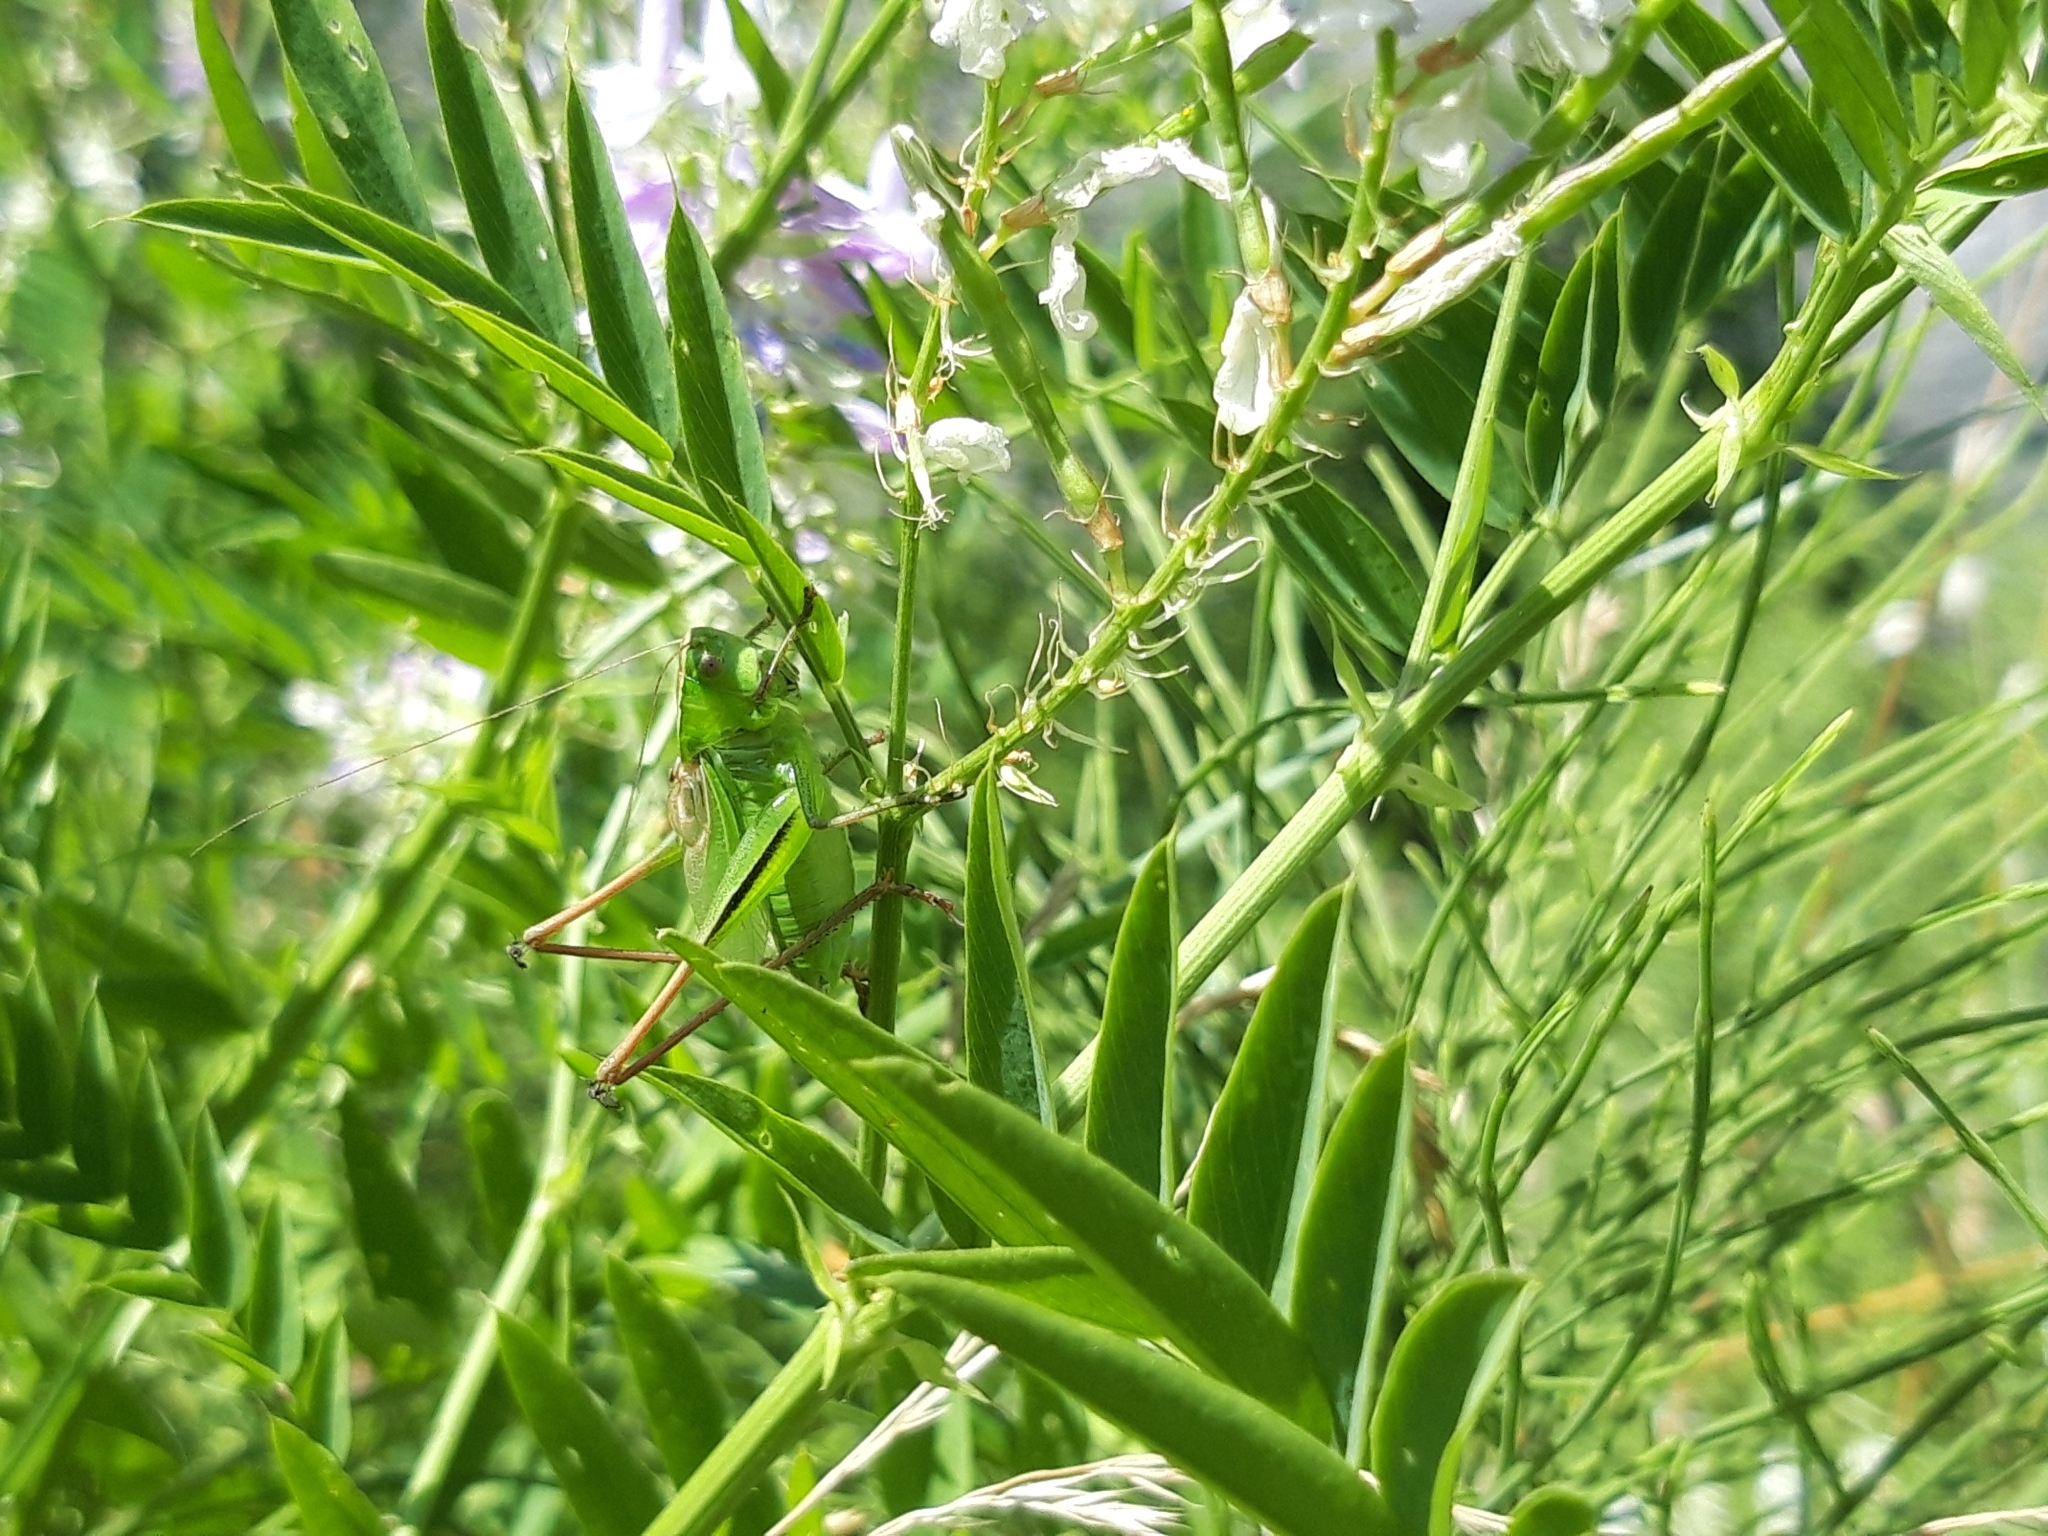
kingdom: Animalia
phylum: Arthropoda
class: Insecta
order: Orthoptera
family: Tettigoniidae
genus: Bicolorana
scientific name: Bicolorana bicolor
